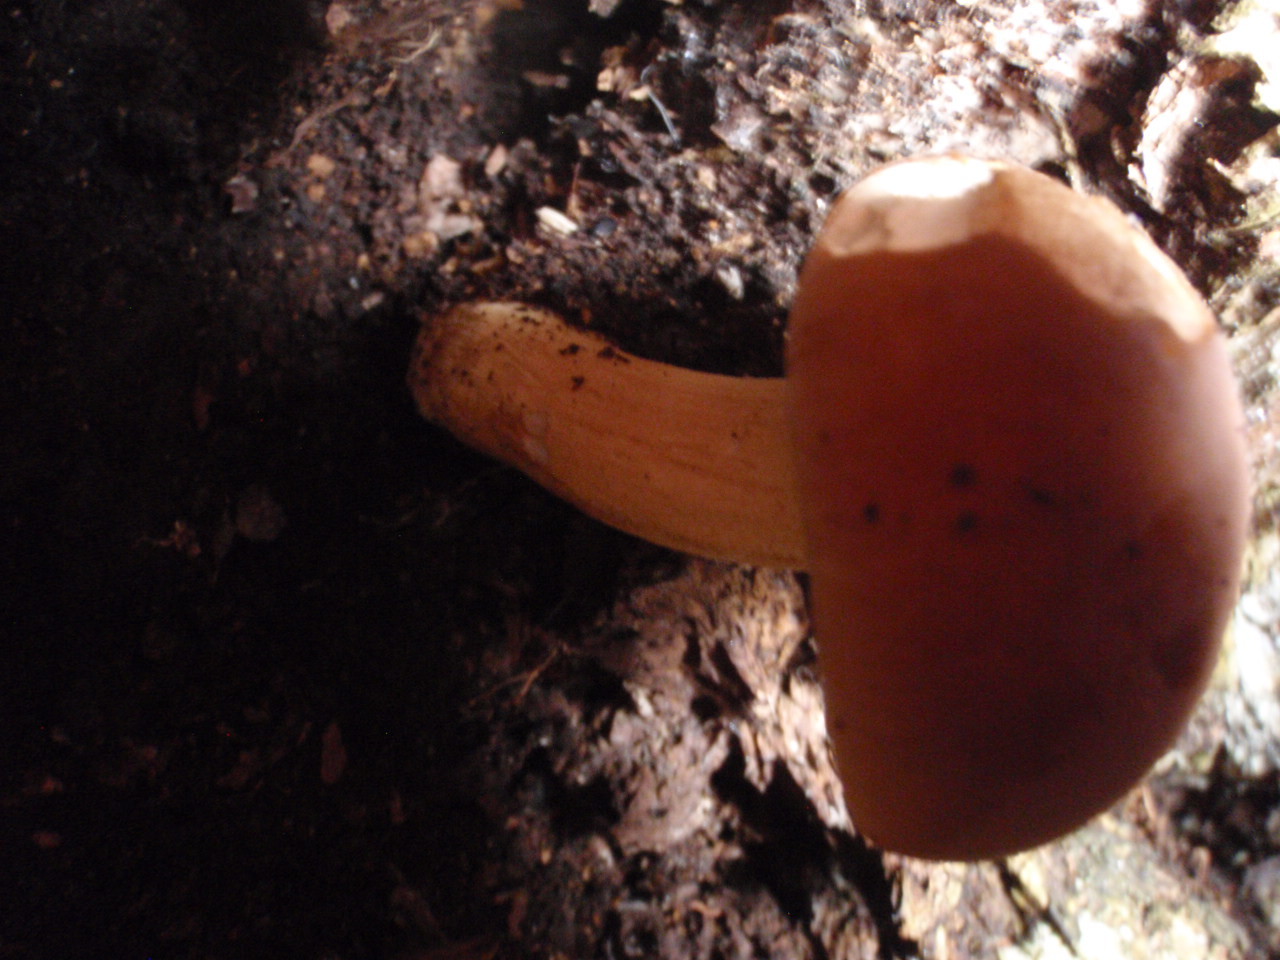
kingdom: Fungi
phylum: Basidiomycota
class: Agaricomycetes
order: Agaricales
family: Tubariaceae
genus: Cyclocybe
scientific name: Cyclocybe parasitica
